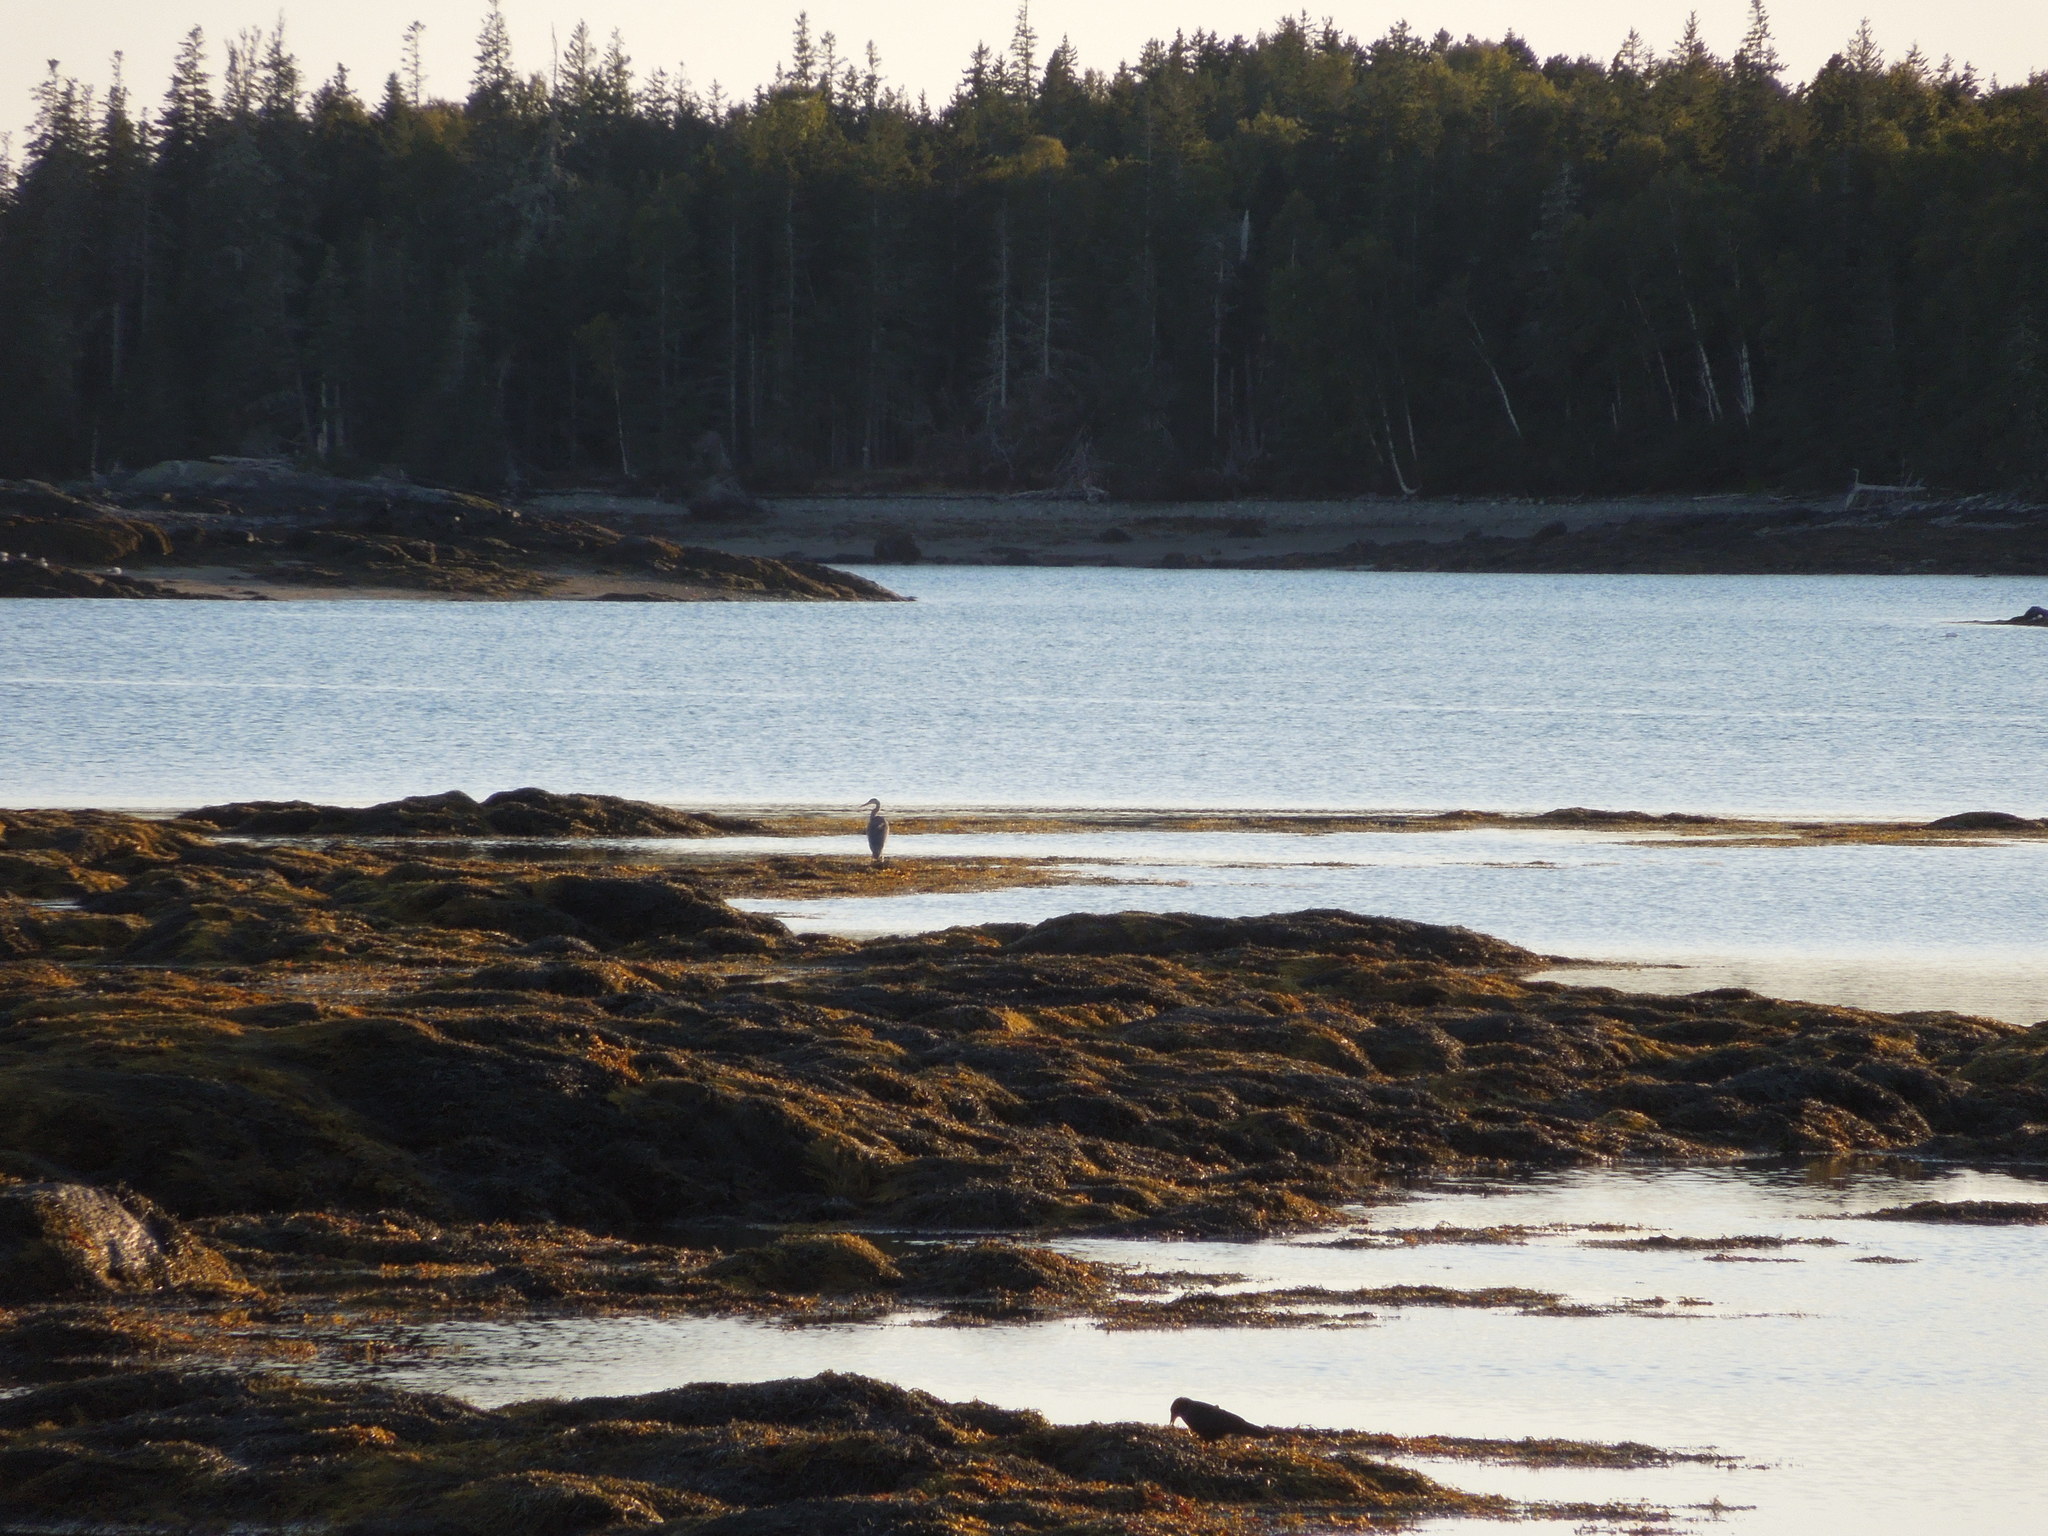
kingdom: Animalia
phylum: Chordata
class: Aves
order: Pelecaniformes
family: Ardeidae
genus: Ardea
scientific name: Ardea herodias
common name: Great blue heron
